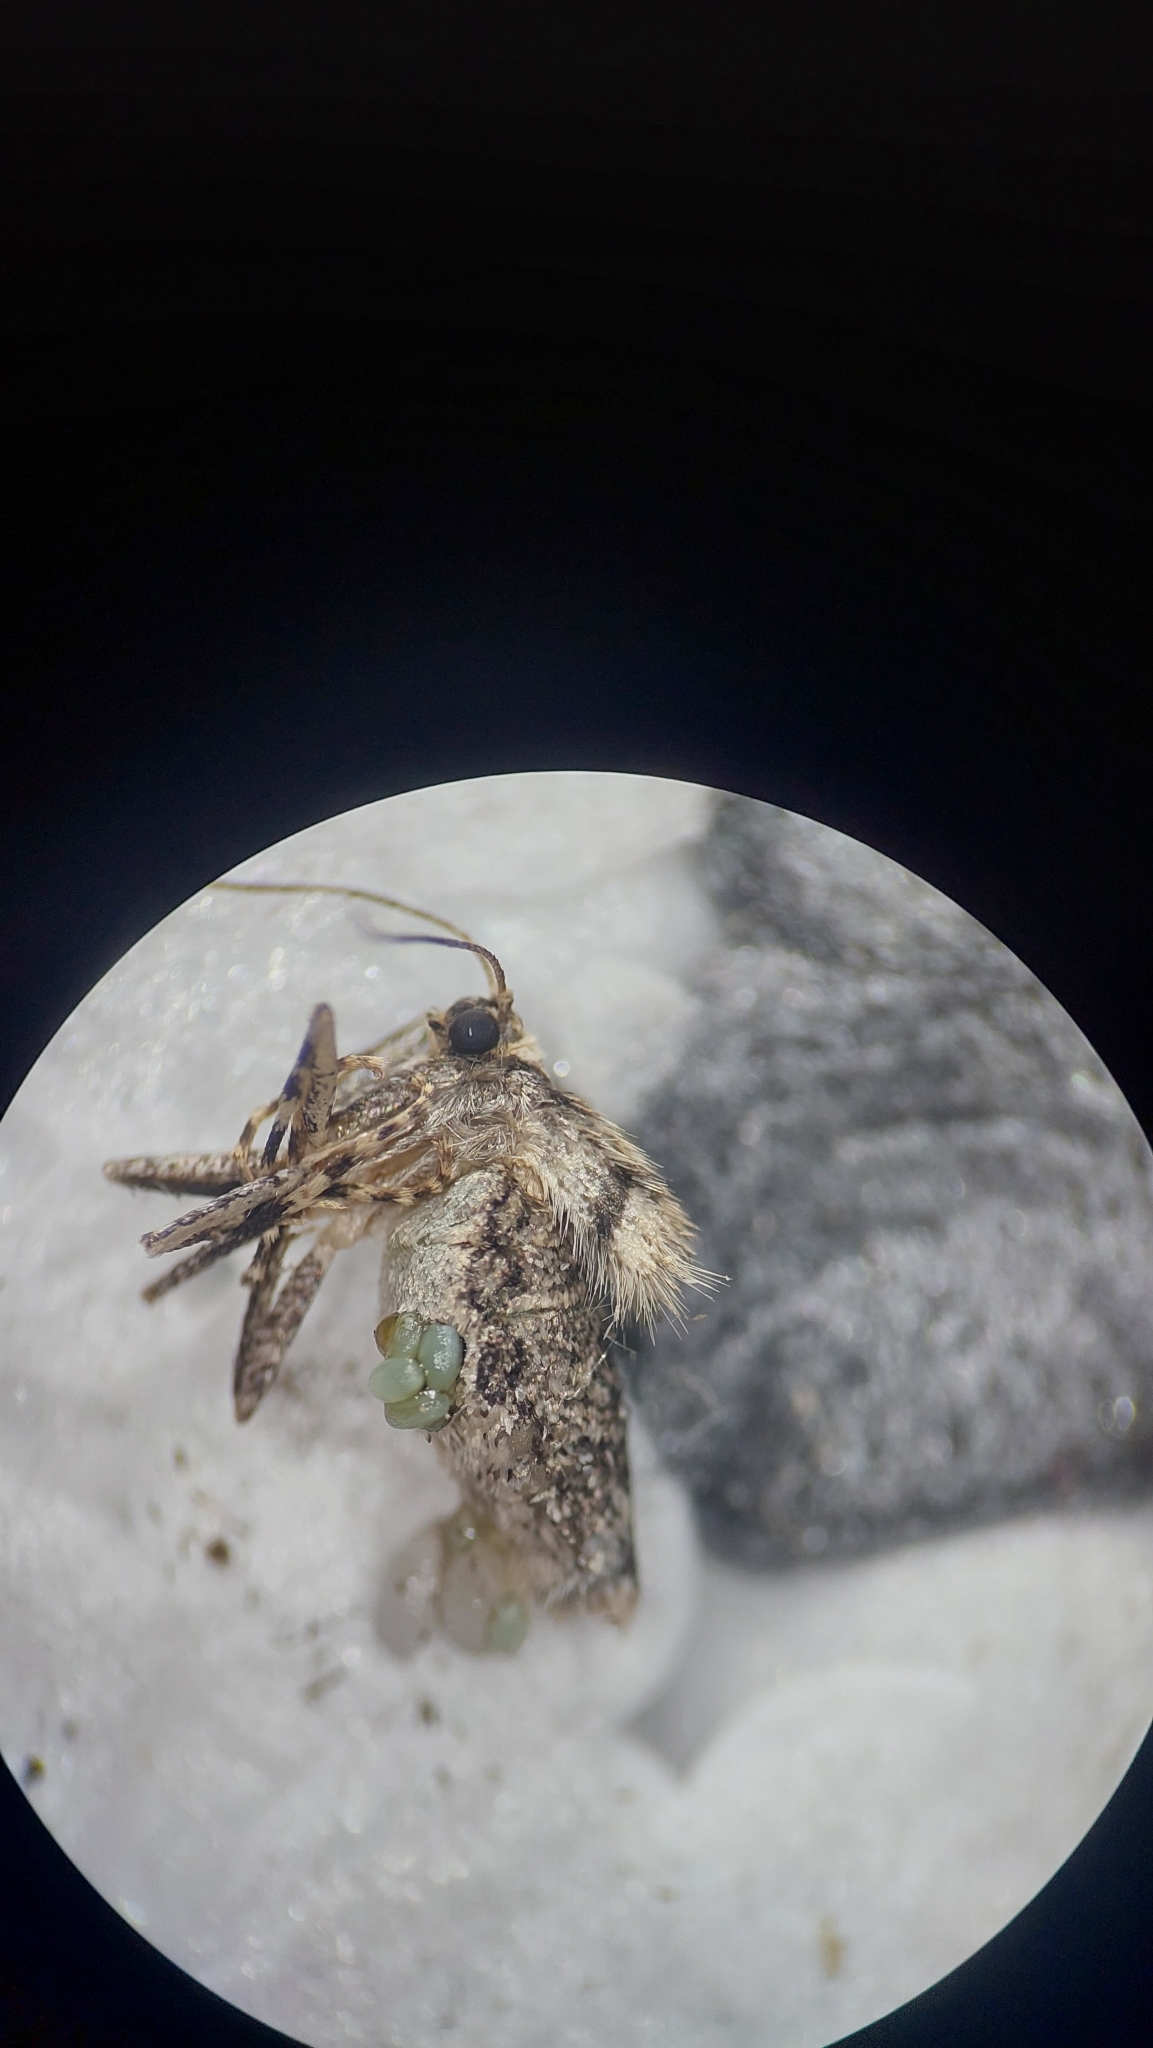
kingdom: Animalia
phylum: Arthropoda
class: Insecta
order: Lepidoptera
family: Geometridae
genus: Operophtera
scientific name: Operophtera brumata
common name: Winter moth
